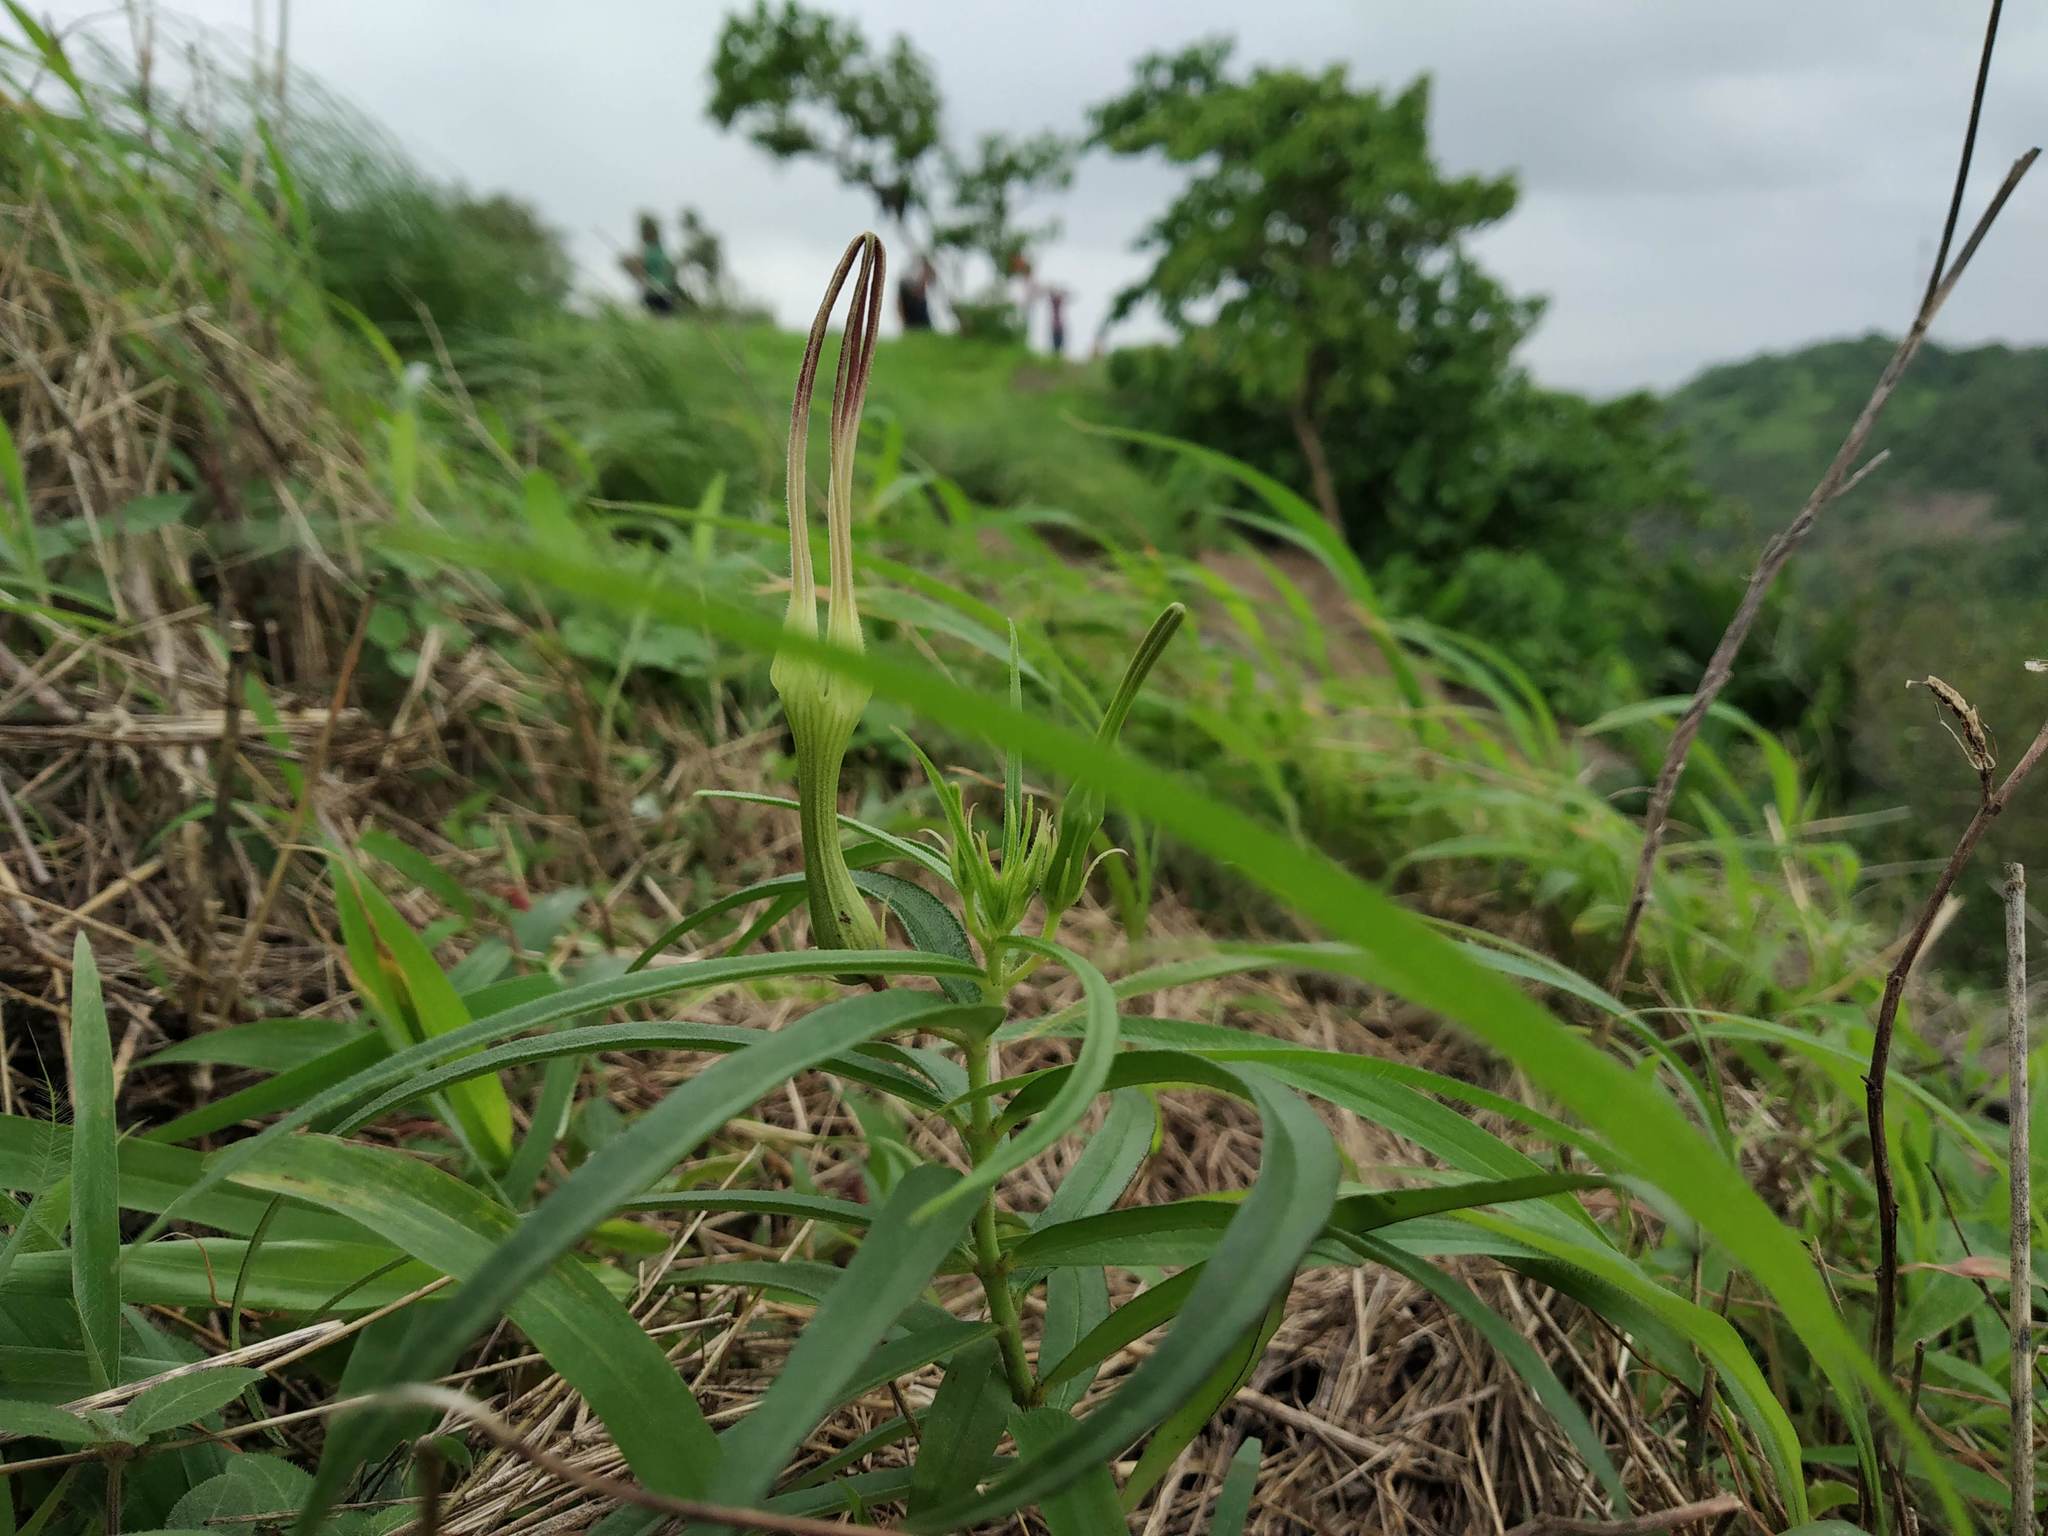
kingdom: Plantae
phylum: Tracheophyta
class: Magnoliopsida
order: Gentianales
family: Apocynaceae
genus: Ceropegia
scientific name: Ceropegia attenuata
